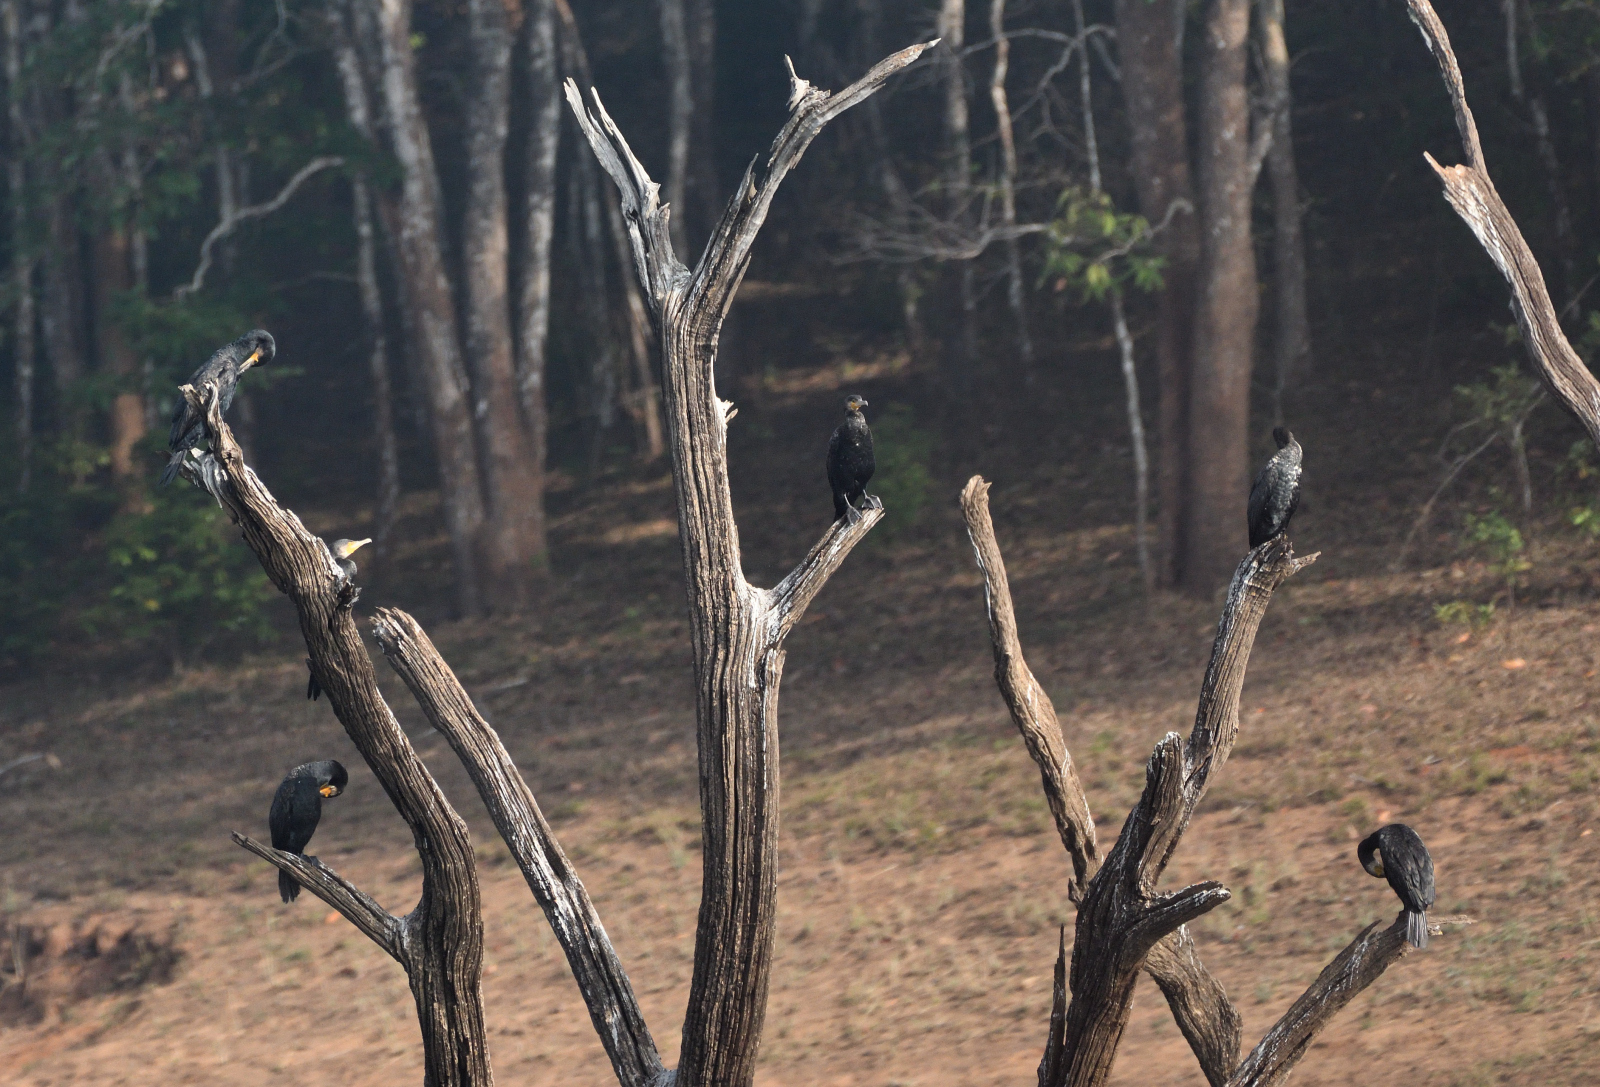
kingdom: Animalia
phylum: Chordata
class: Aves
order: Suliformes
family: Phalacrocoracidae
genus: Microcarbo
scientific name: Microcarbo niger
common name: Little cormorant
